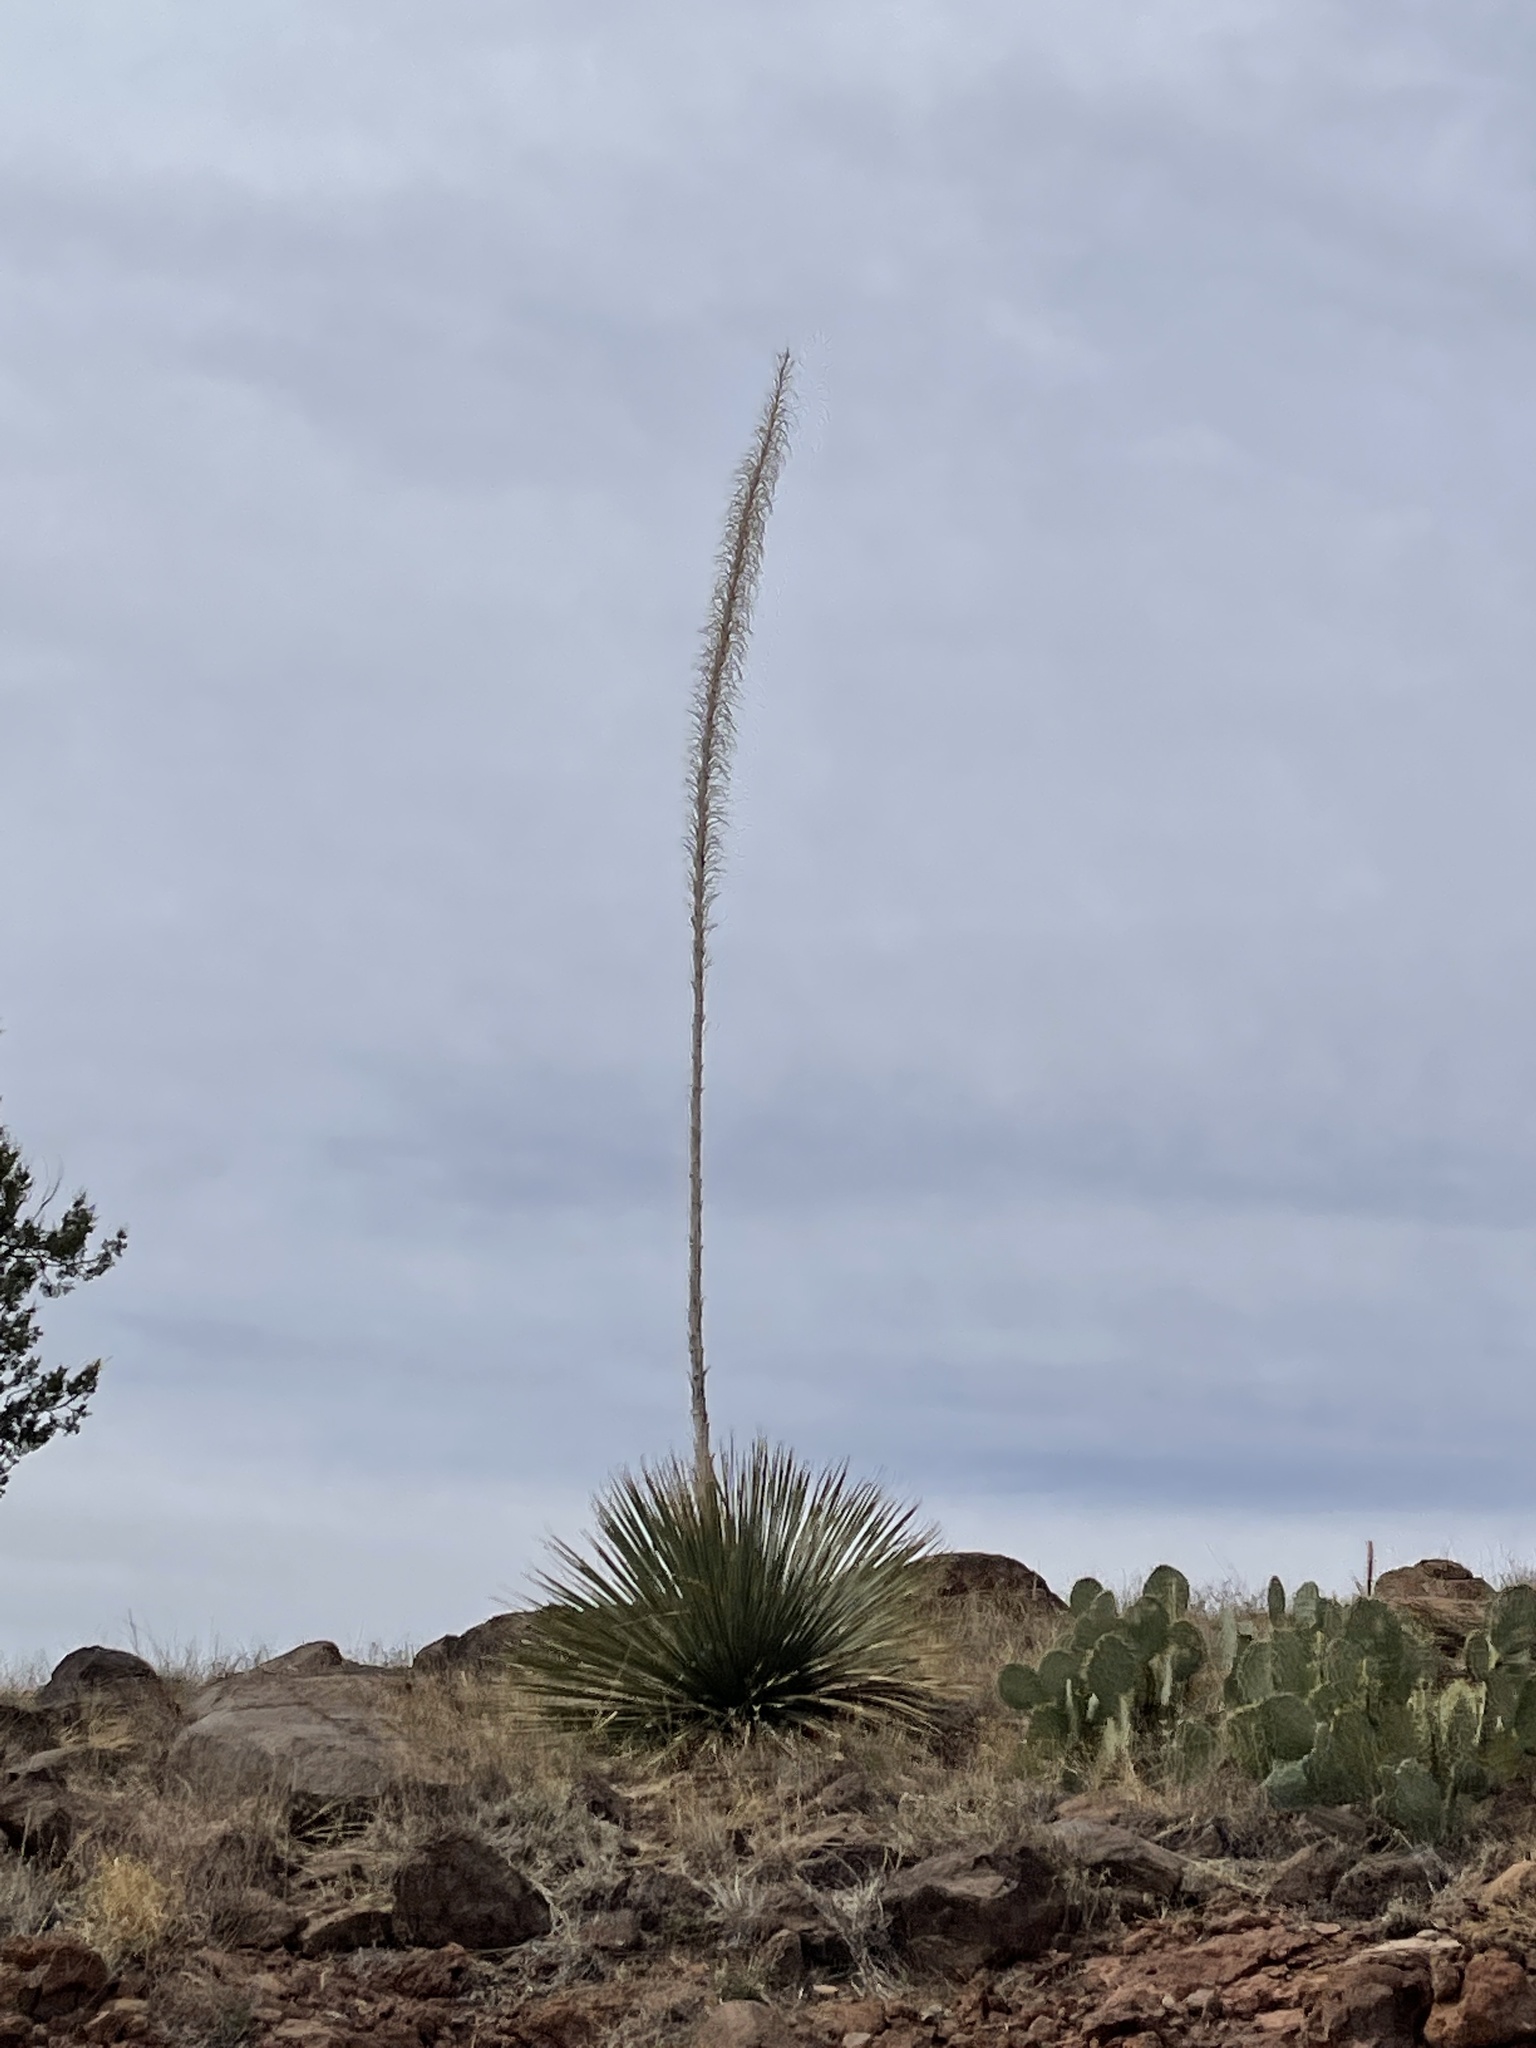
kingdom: Plantae
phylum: Tracheophyta
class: Liliopsida
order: Asparagales
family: Asparagaceae
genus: Dasylirion
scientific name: Dasylirion wheeleri
